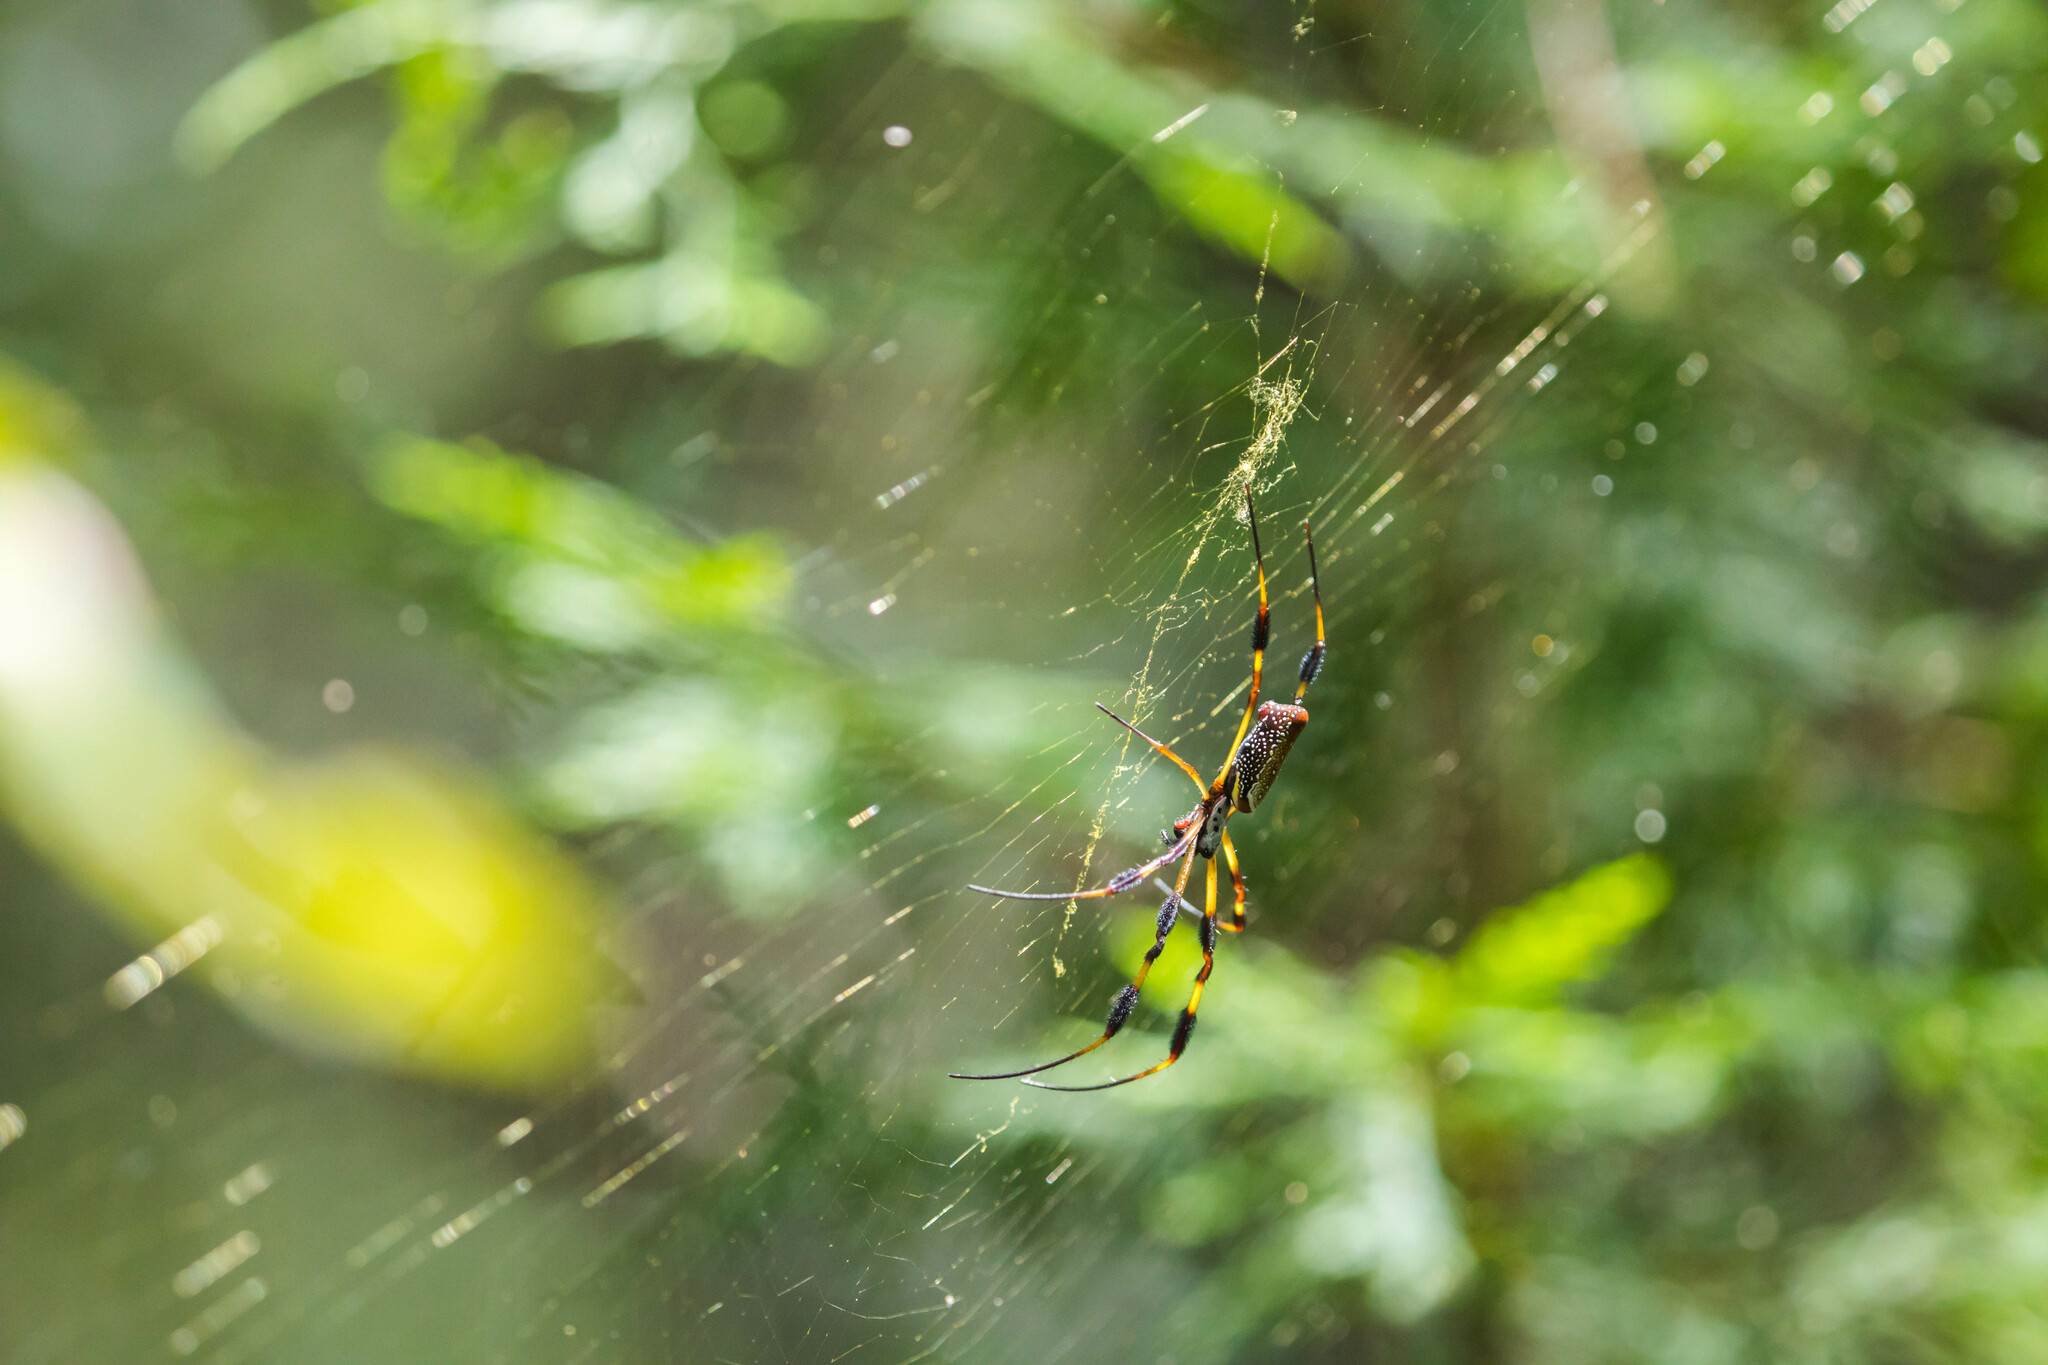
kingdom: Animalia
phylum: Arthropoda
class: Arachnida
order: Araneae
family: Araneidae
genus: Trichonephila
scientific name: Trichonephila clavipes
